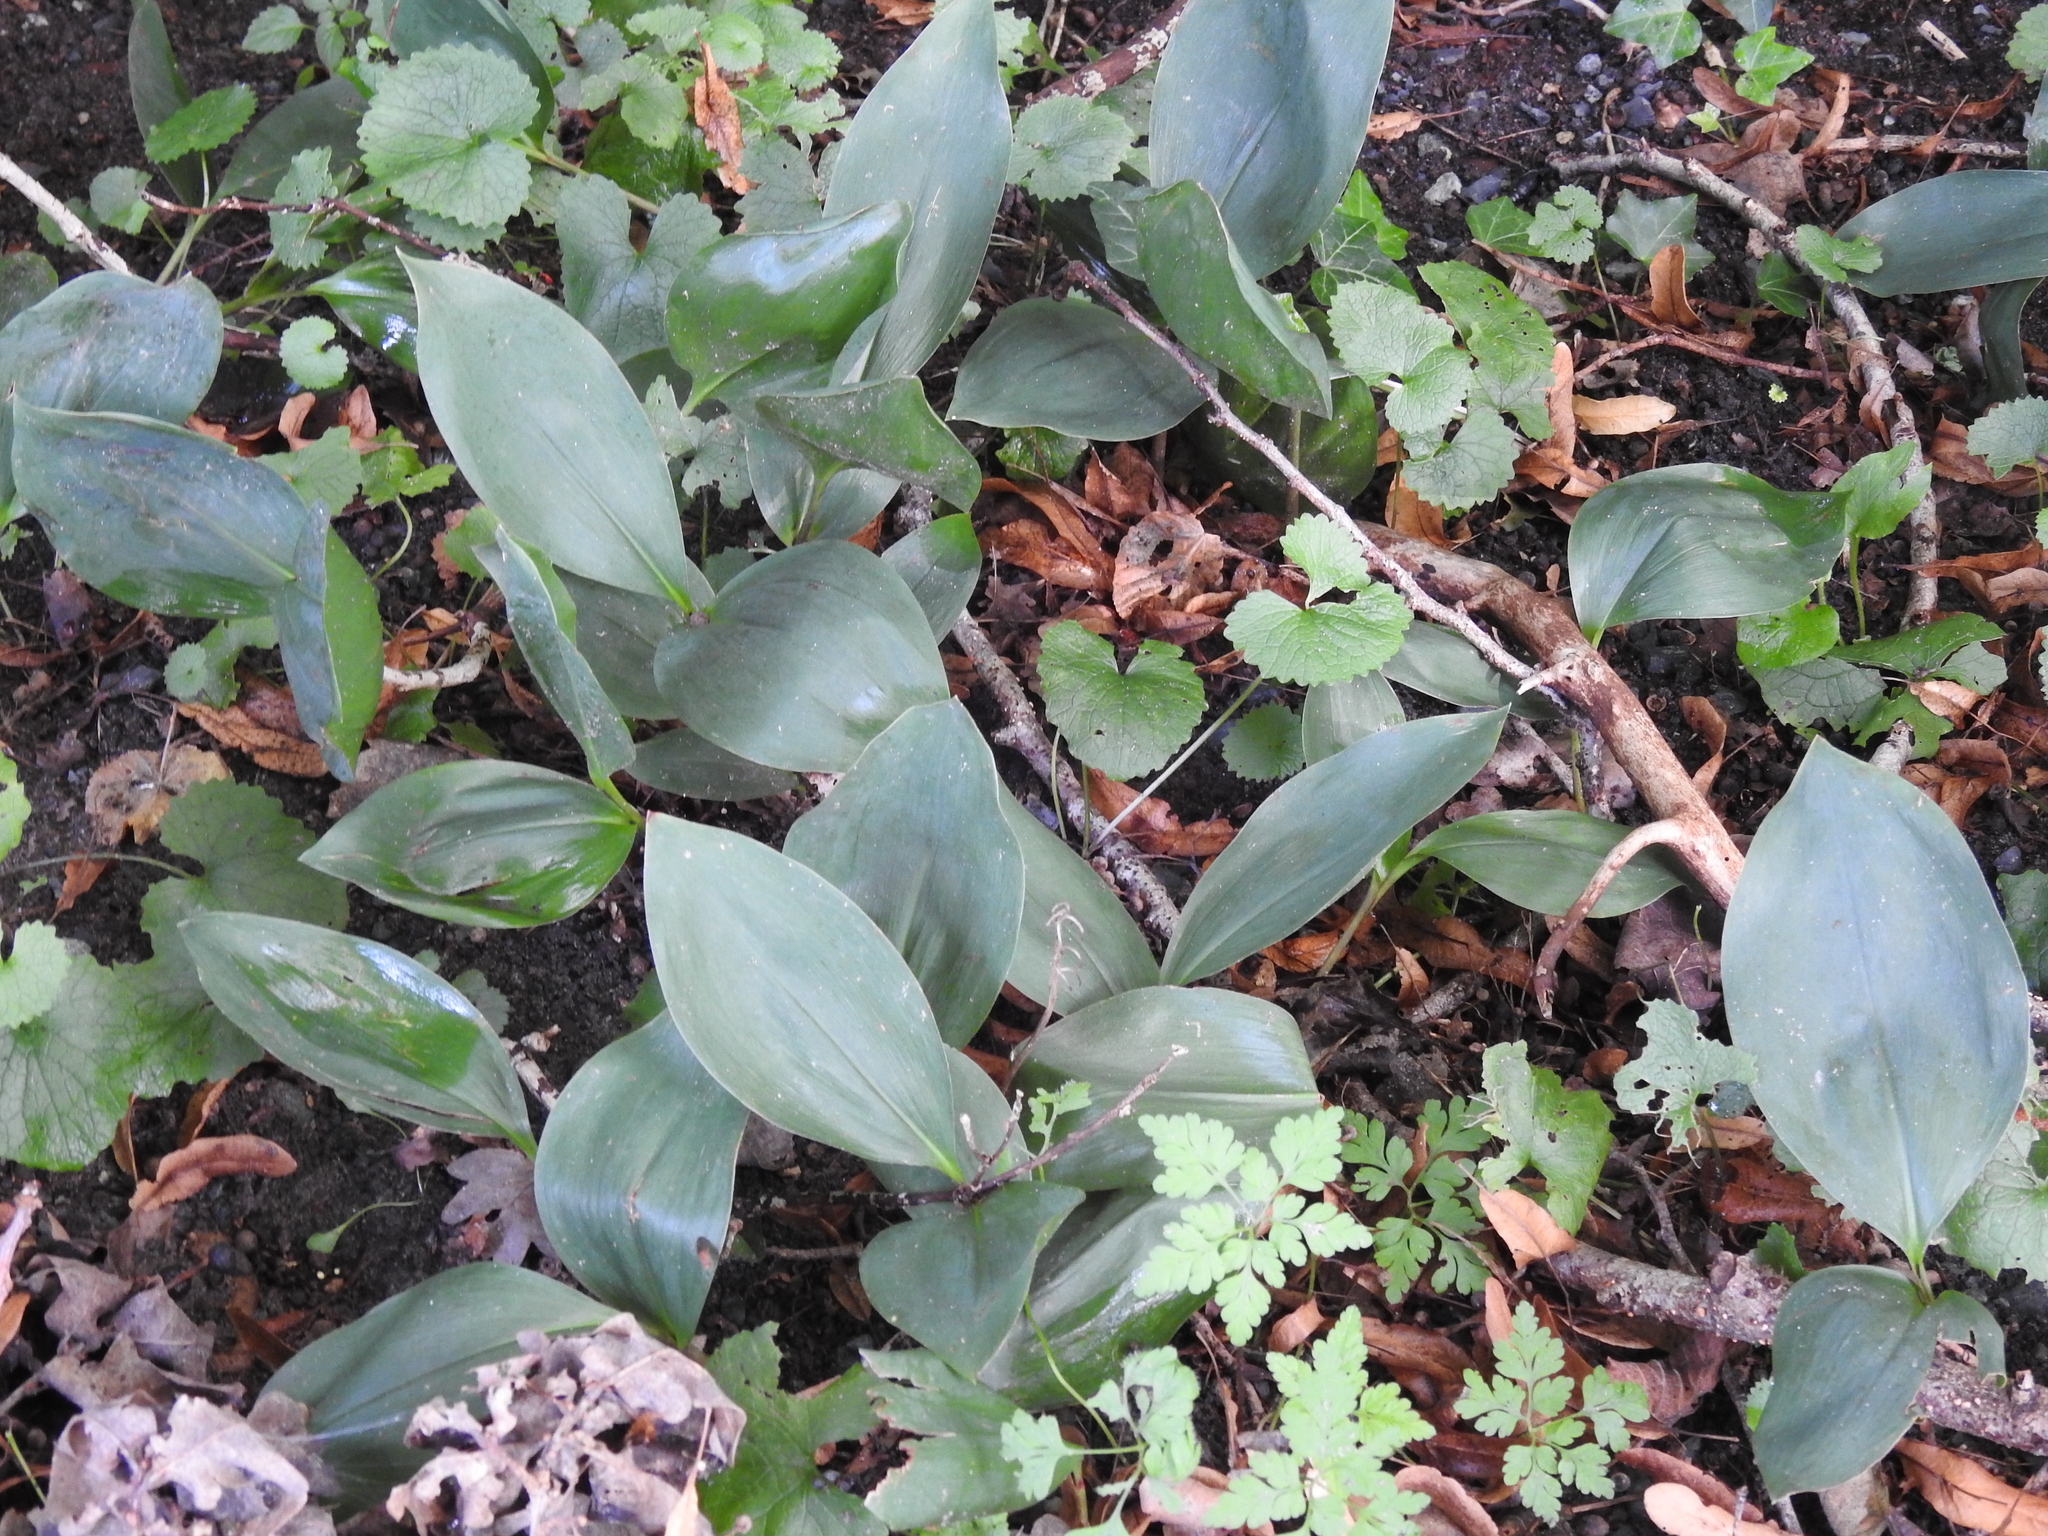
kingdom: Plantae
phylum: Tracheophyta
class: Liliopsida
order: Asparagales
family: Asparagaceae
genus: Convallaria
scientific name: Convallaria majalis
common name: Lily-of-the-valley
